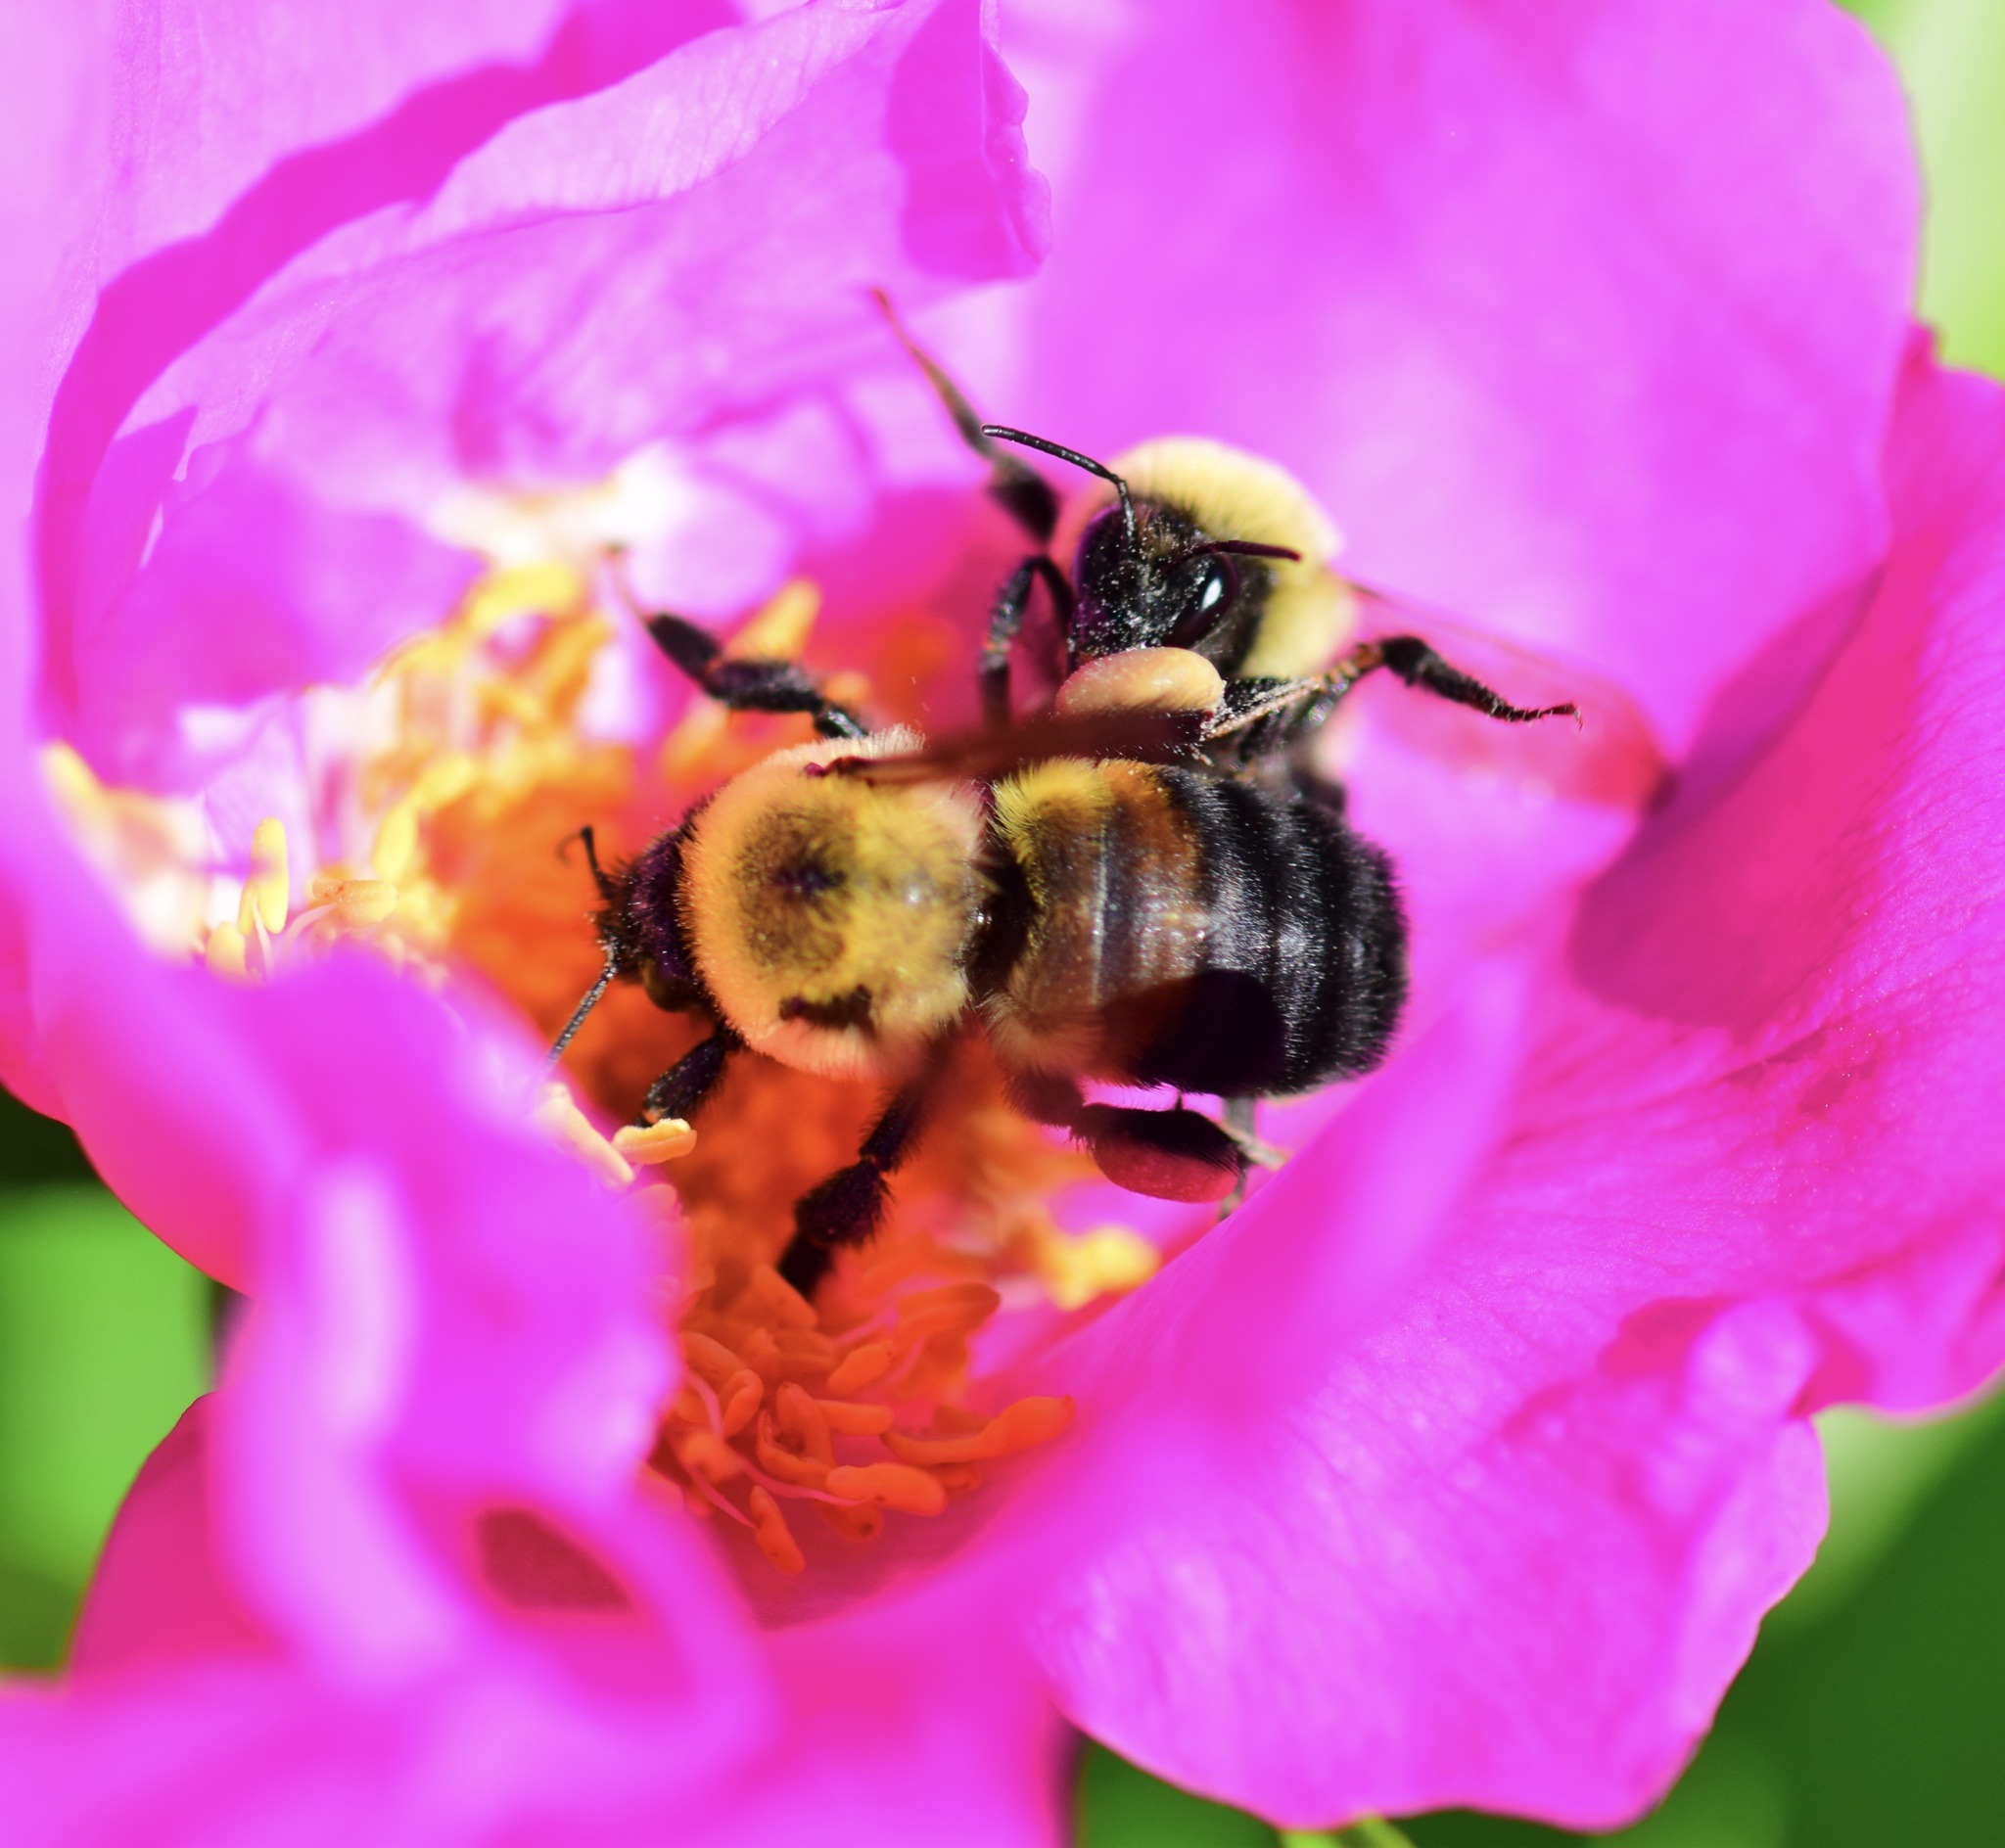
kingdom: Animalia
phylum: Arthropoda
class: Insecta
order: Hymenoptera
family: Apidae
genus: Bombus
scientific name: Bombus griseocollis
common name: Brown-belted bumble bee
